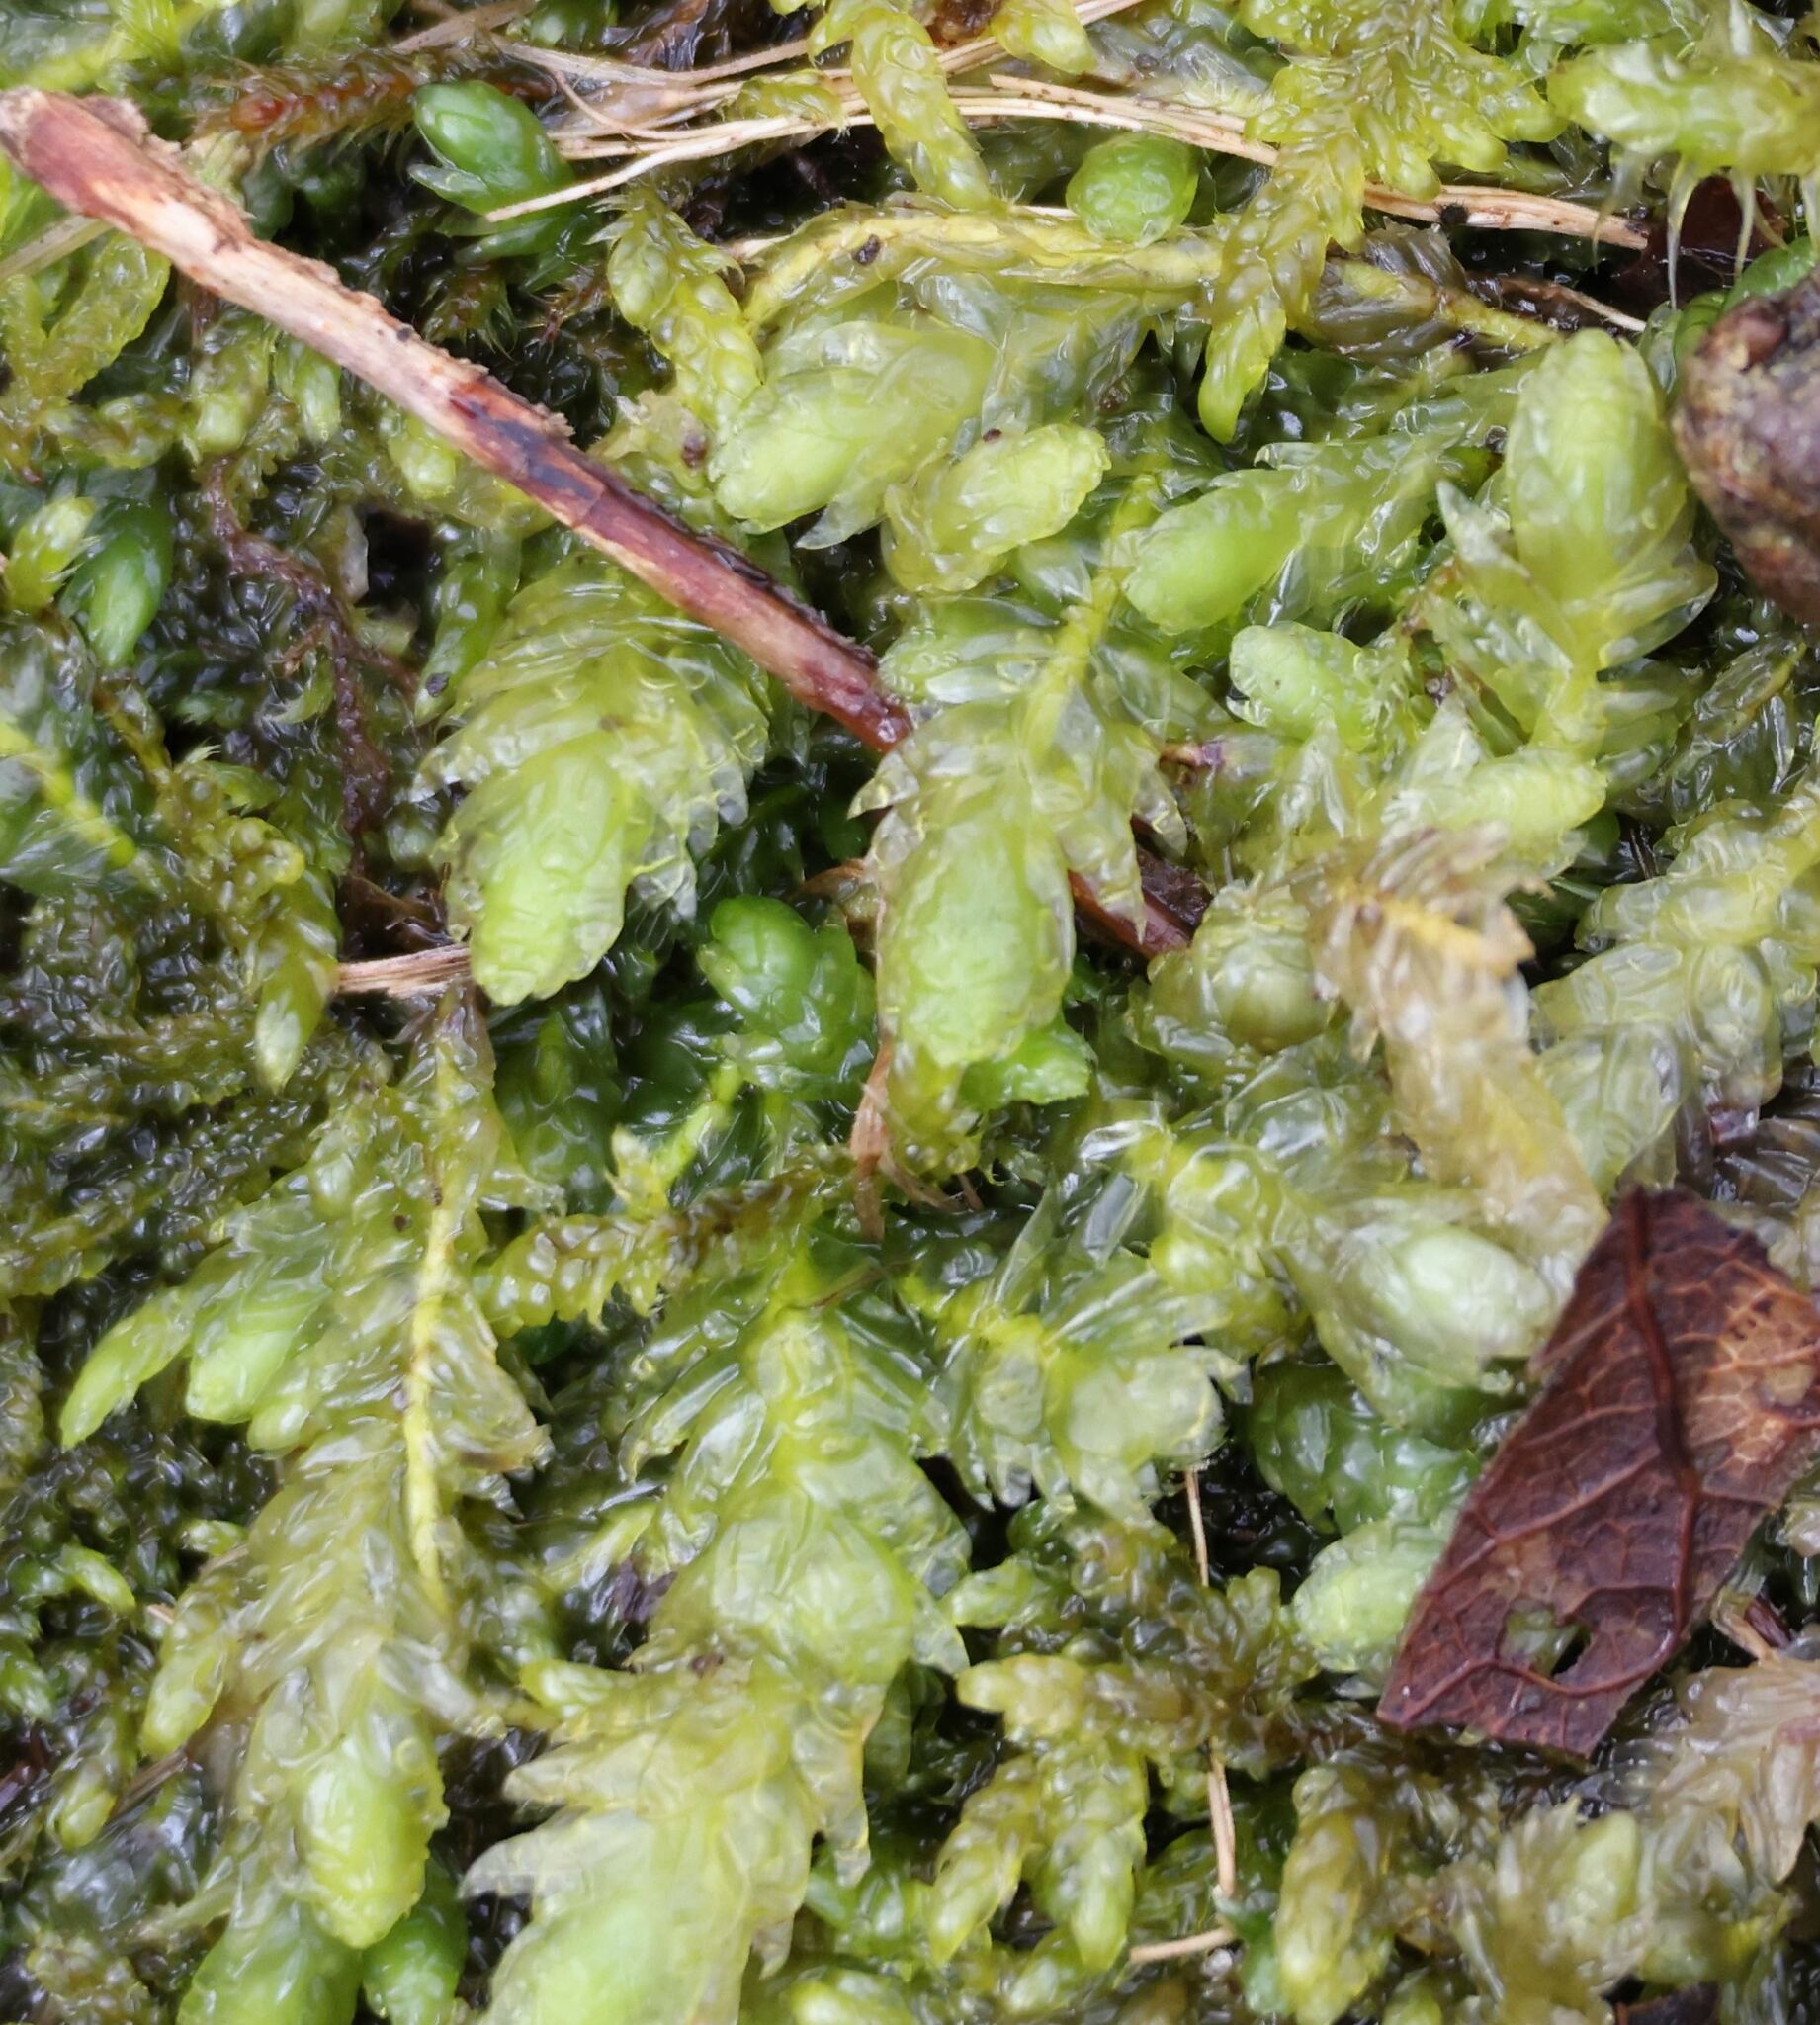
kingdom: Plantae
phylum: Bryophyta
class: Bryopsida
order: Hypnales
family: Plagiotheciaceae
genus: Plagiothecium
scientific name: Plagiothecium undulatum
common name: Waved silk-moss
